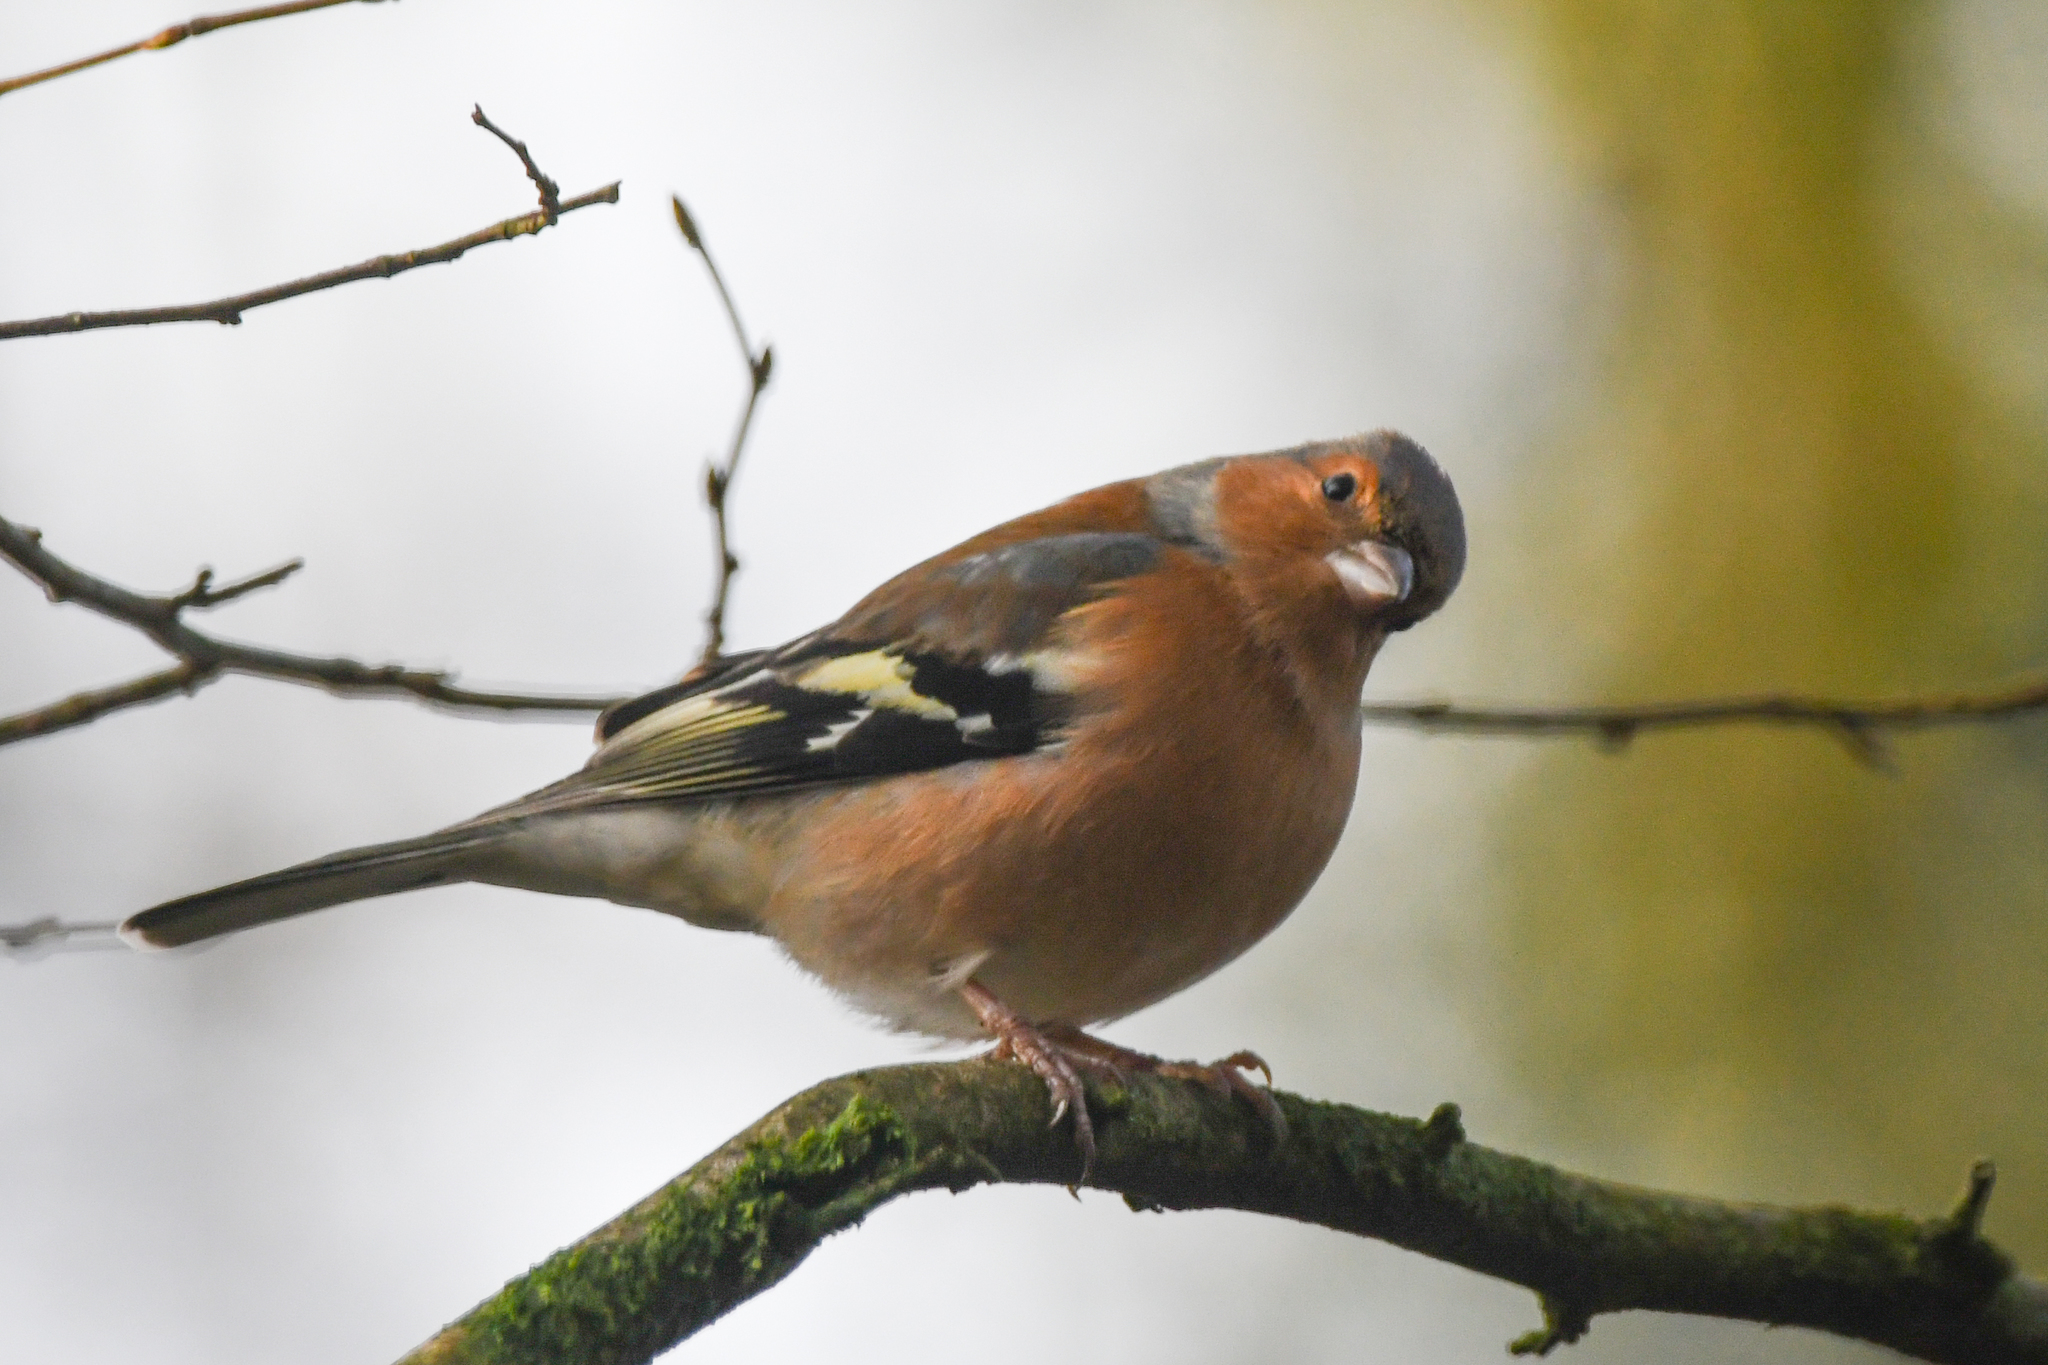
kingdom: Animalia
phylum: Chordata
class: Aves
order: Passeriformes
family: Fringillidae
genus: Fringilla
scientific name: Fringilla coelebs
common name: Common chaffinch
